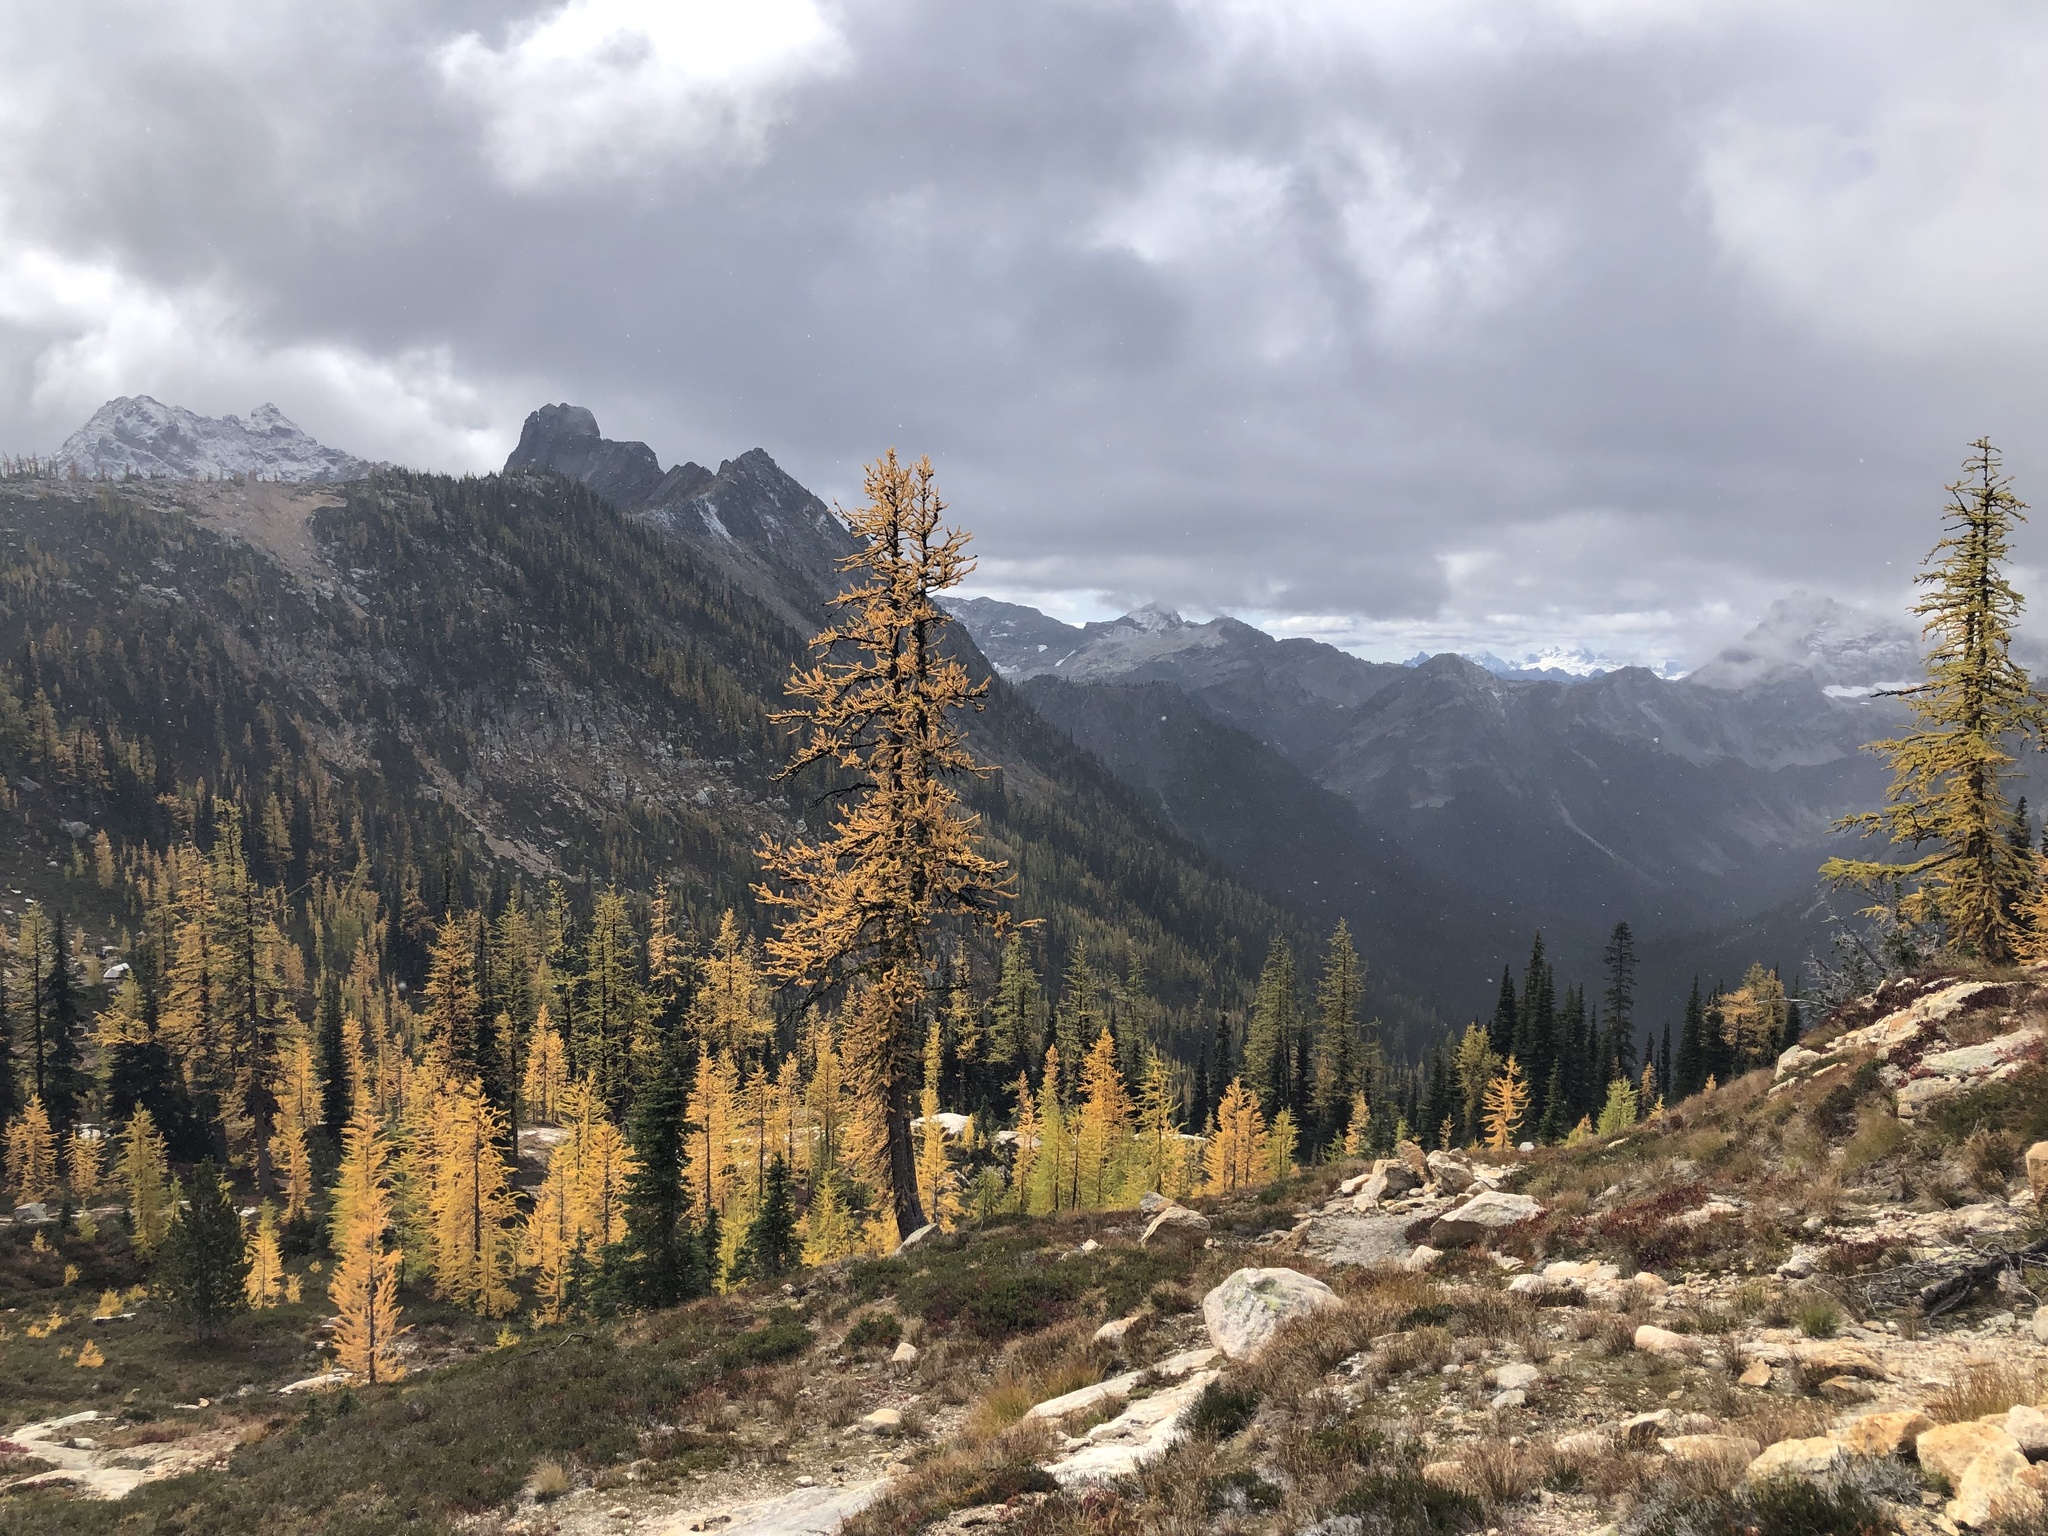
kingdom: Plantae
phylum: Tracheophyta
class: Pinopsida
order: Pinales
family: Pinaceae
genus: Larix
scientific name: Larix lyallii
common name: Alpine larch
